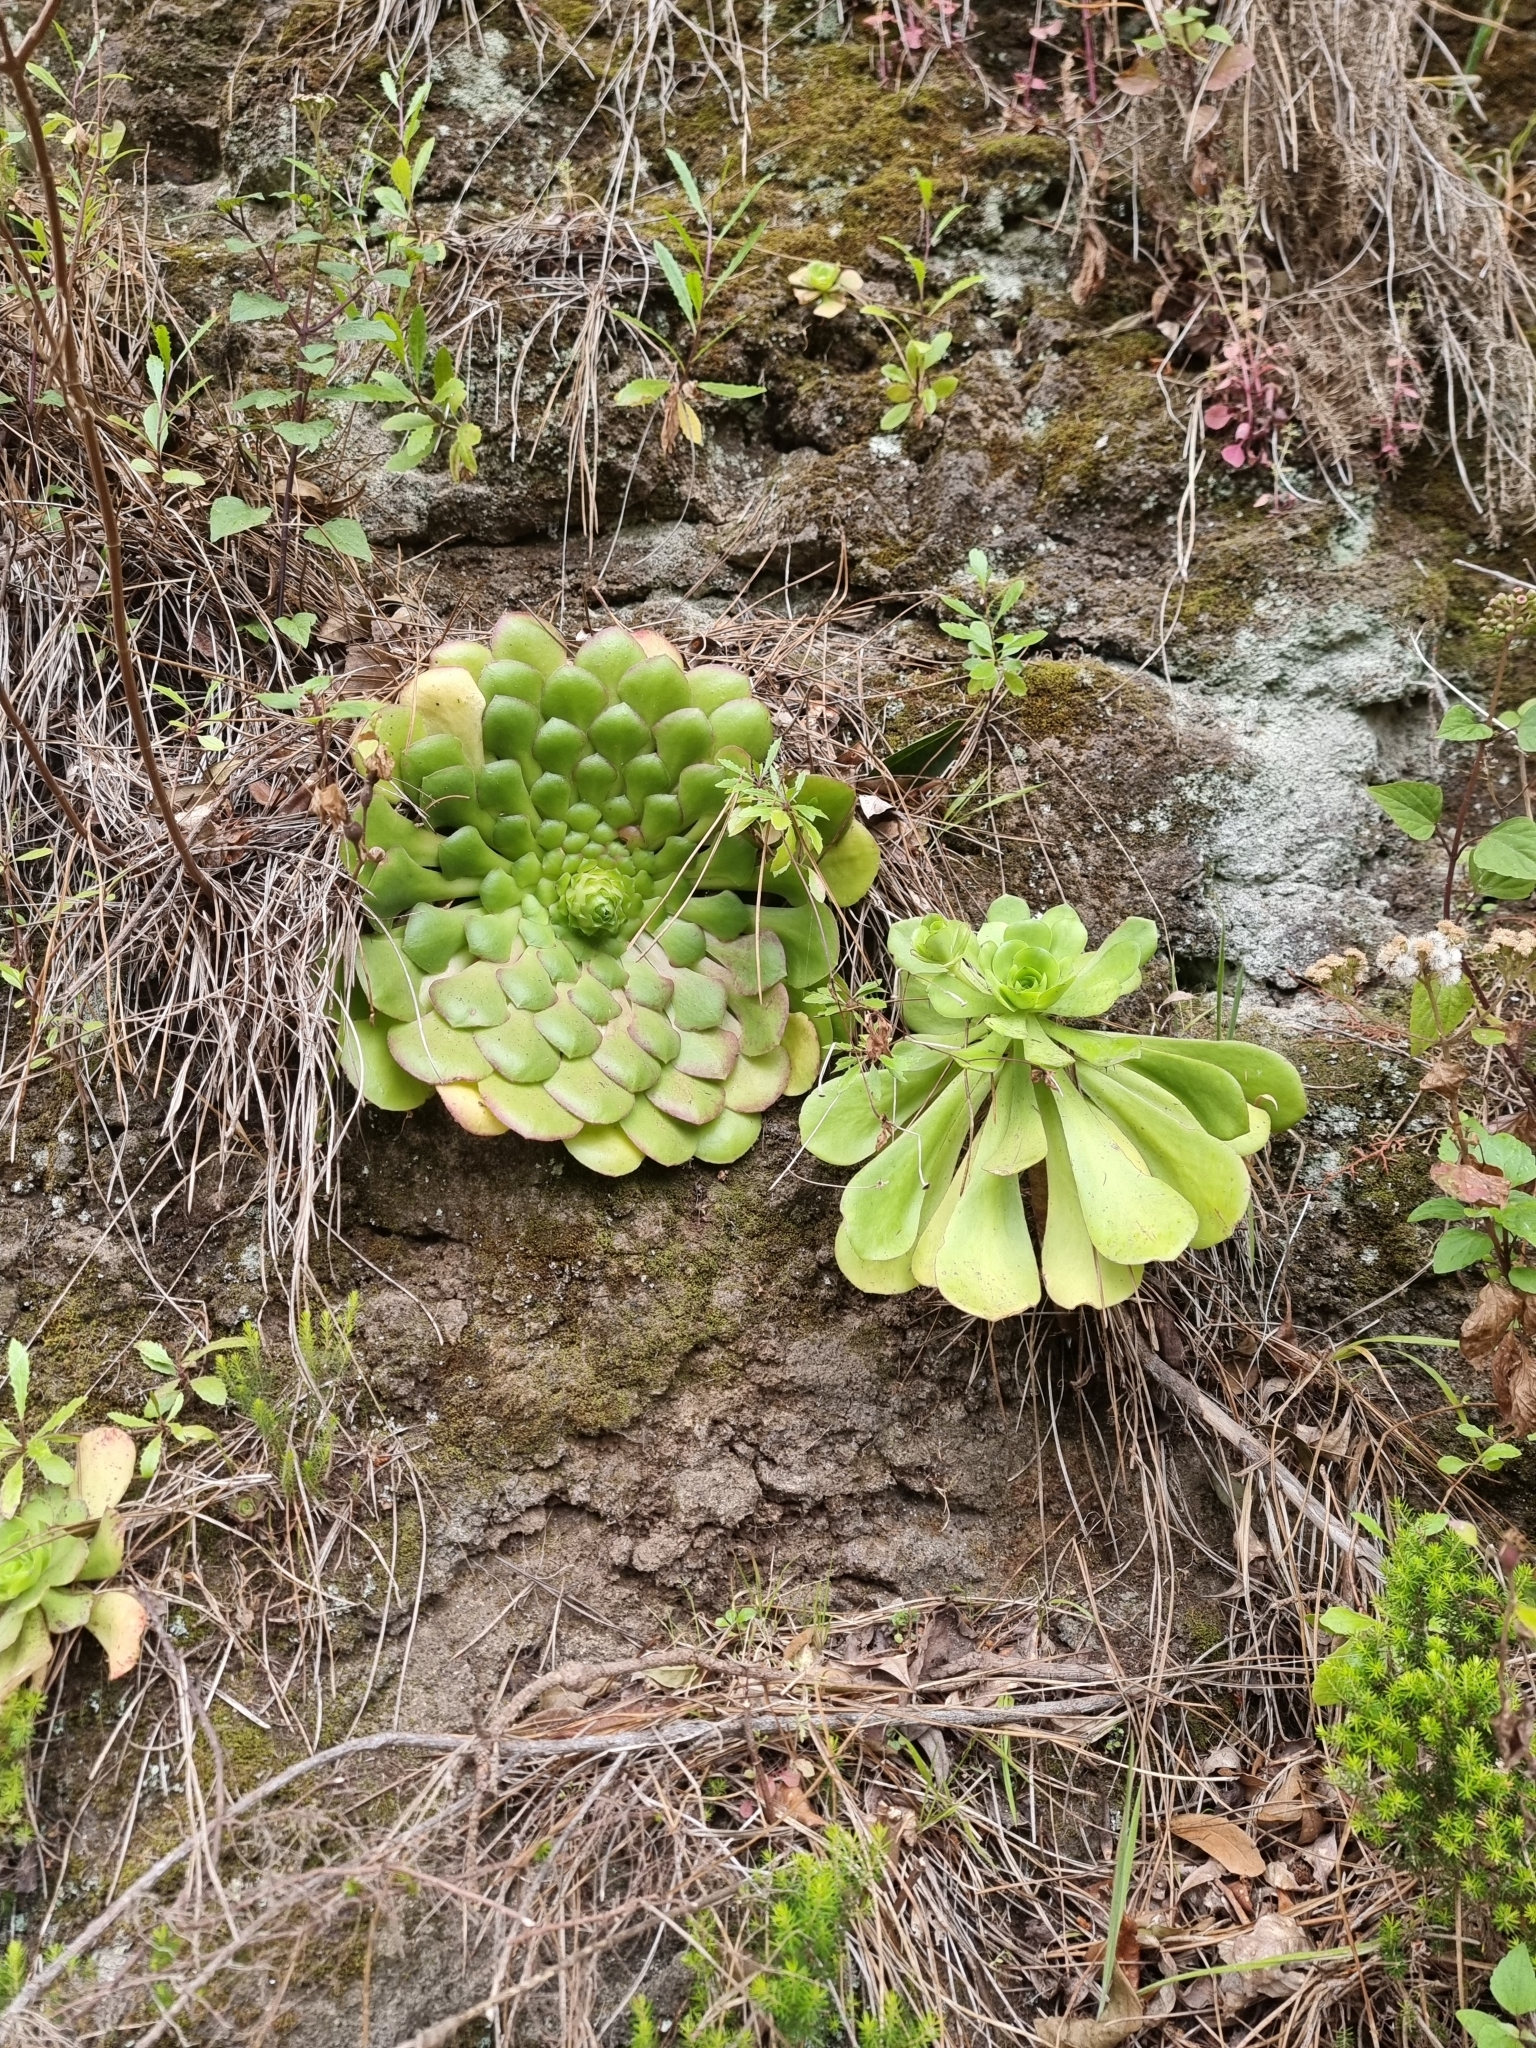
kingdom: Plantae
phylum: Tracheophyta
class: Magnoliopsida
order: Saxifragales
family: Crassulaceae
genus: Aeonium
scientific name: Aeonium glutinosum
